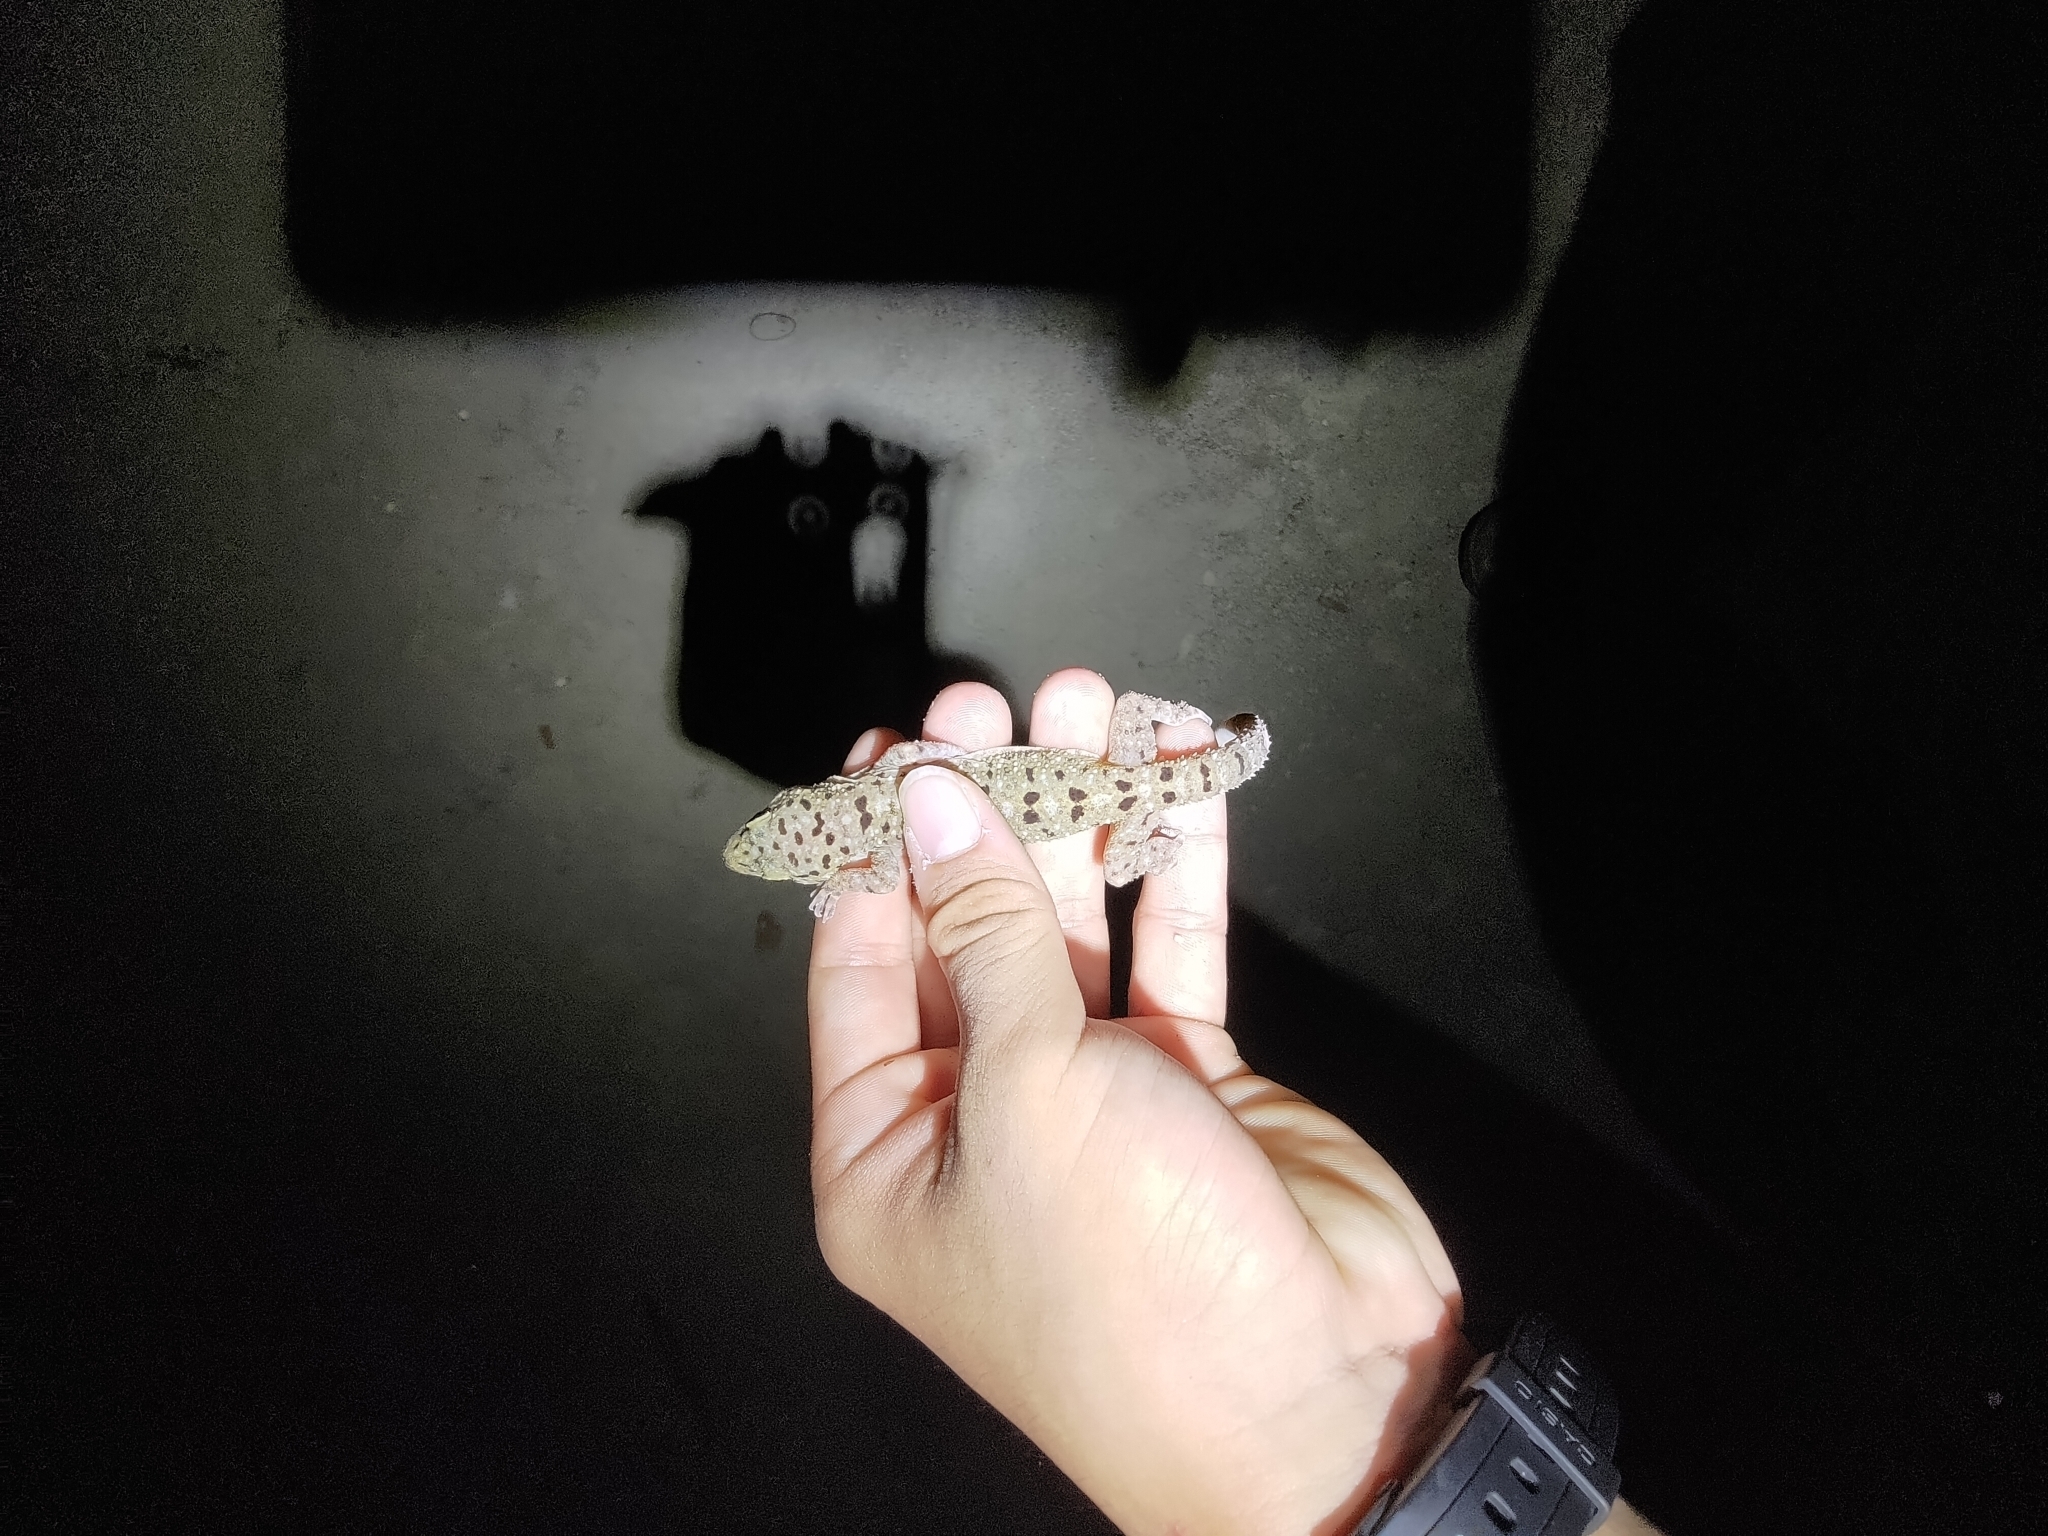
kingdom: Animalia
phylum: Chordata
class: Squamata
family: Gekkonidae
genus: Gekko
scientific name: Gekko monarchus
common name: Spotted house gecko
